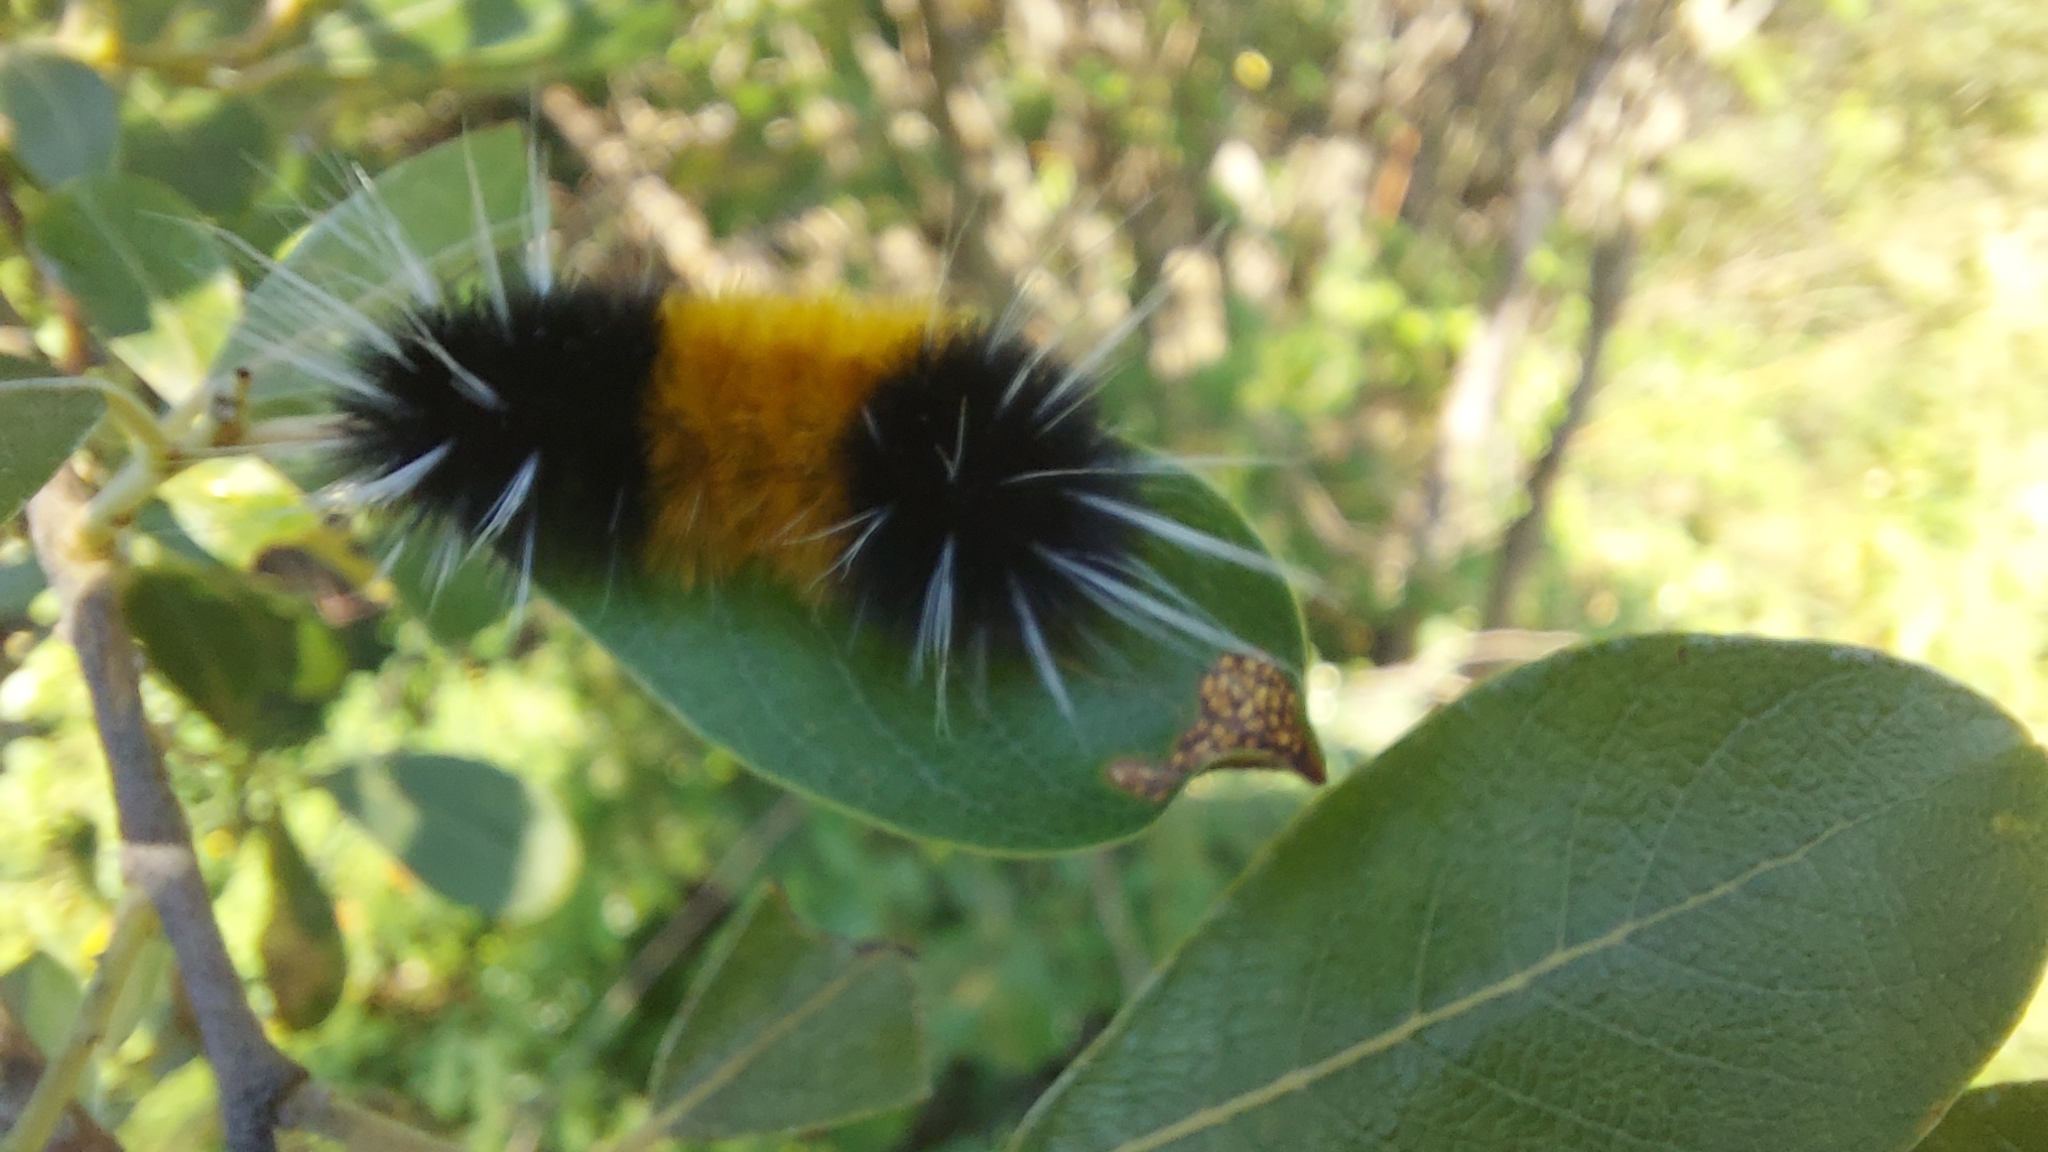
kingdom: Animalia
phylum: Arthropoda
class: Insecta
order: Lepidoptera
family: Erebidae
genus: Lophocampa
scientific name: Lophocampa maculata
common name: Spotted tussock moth
